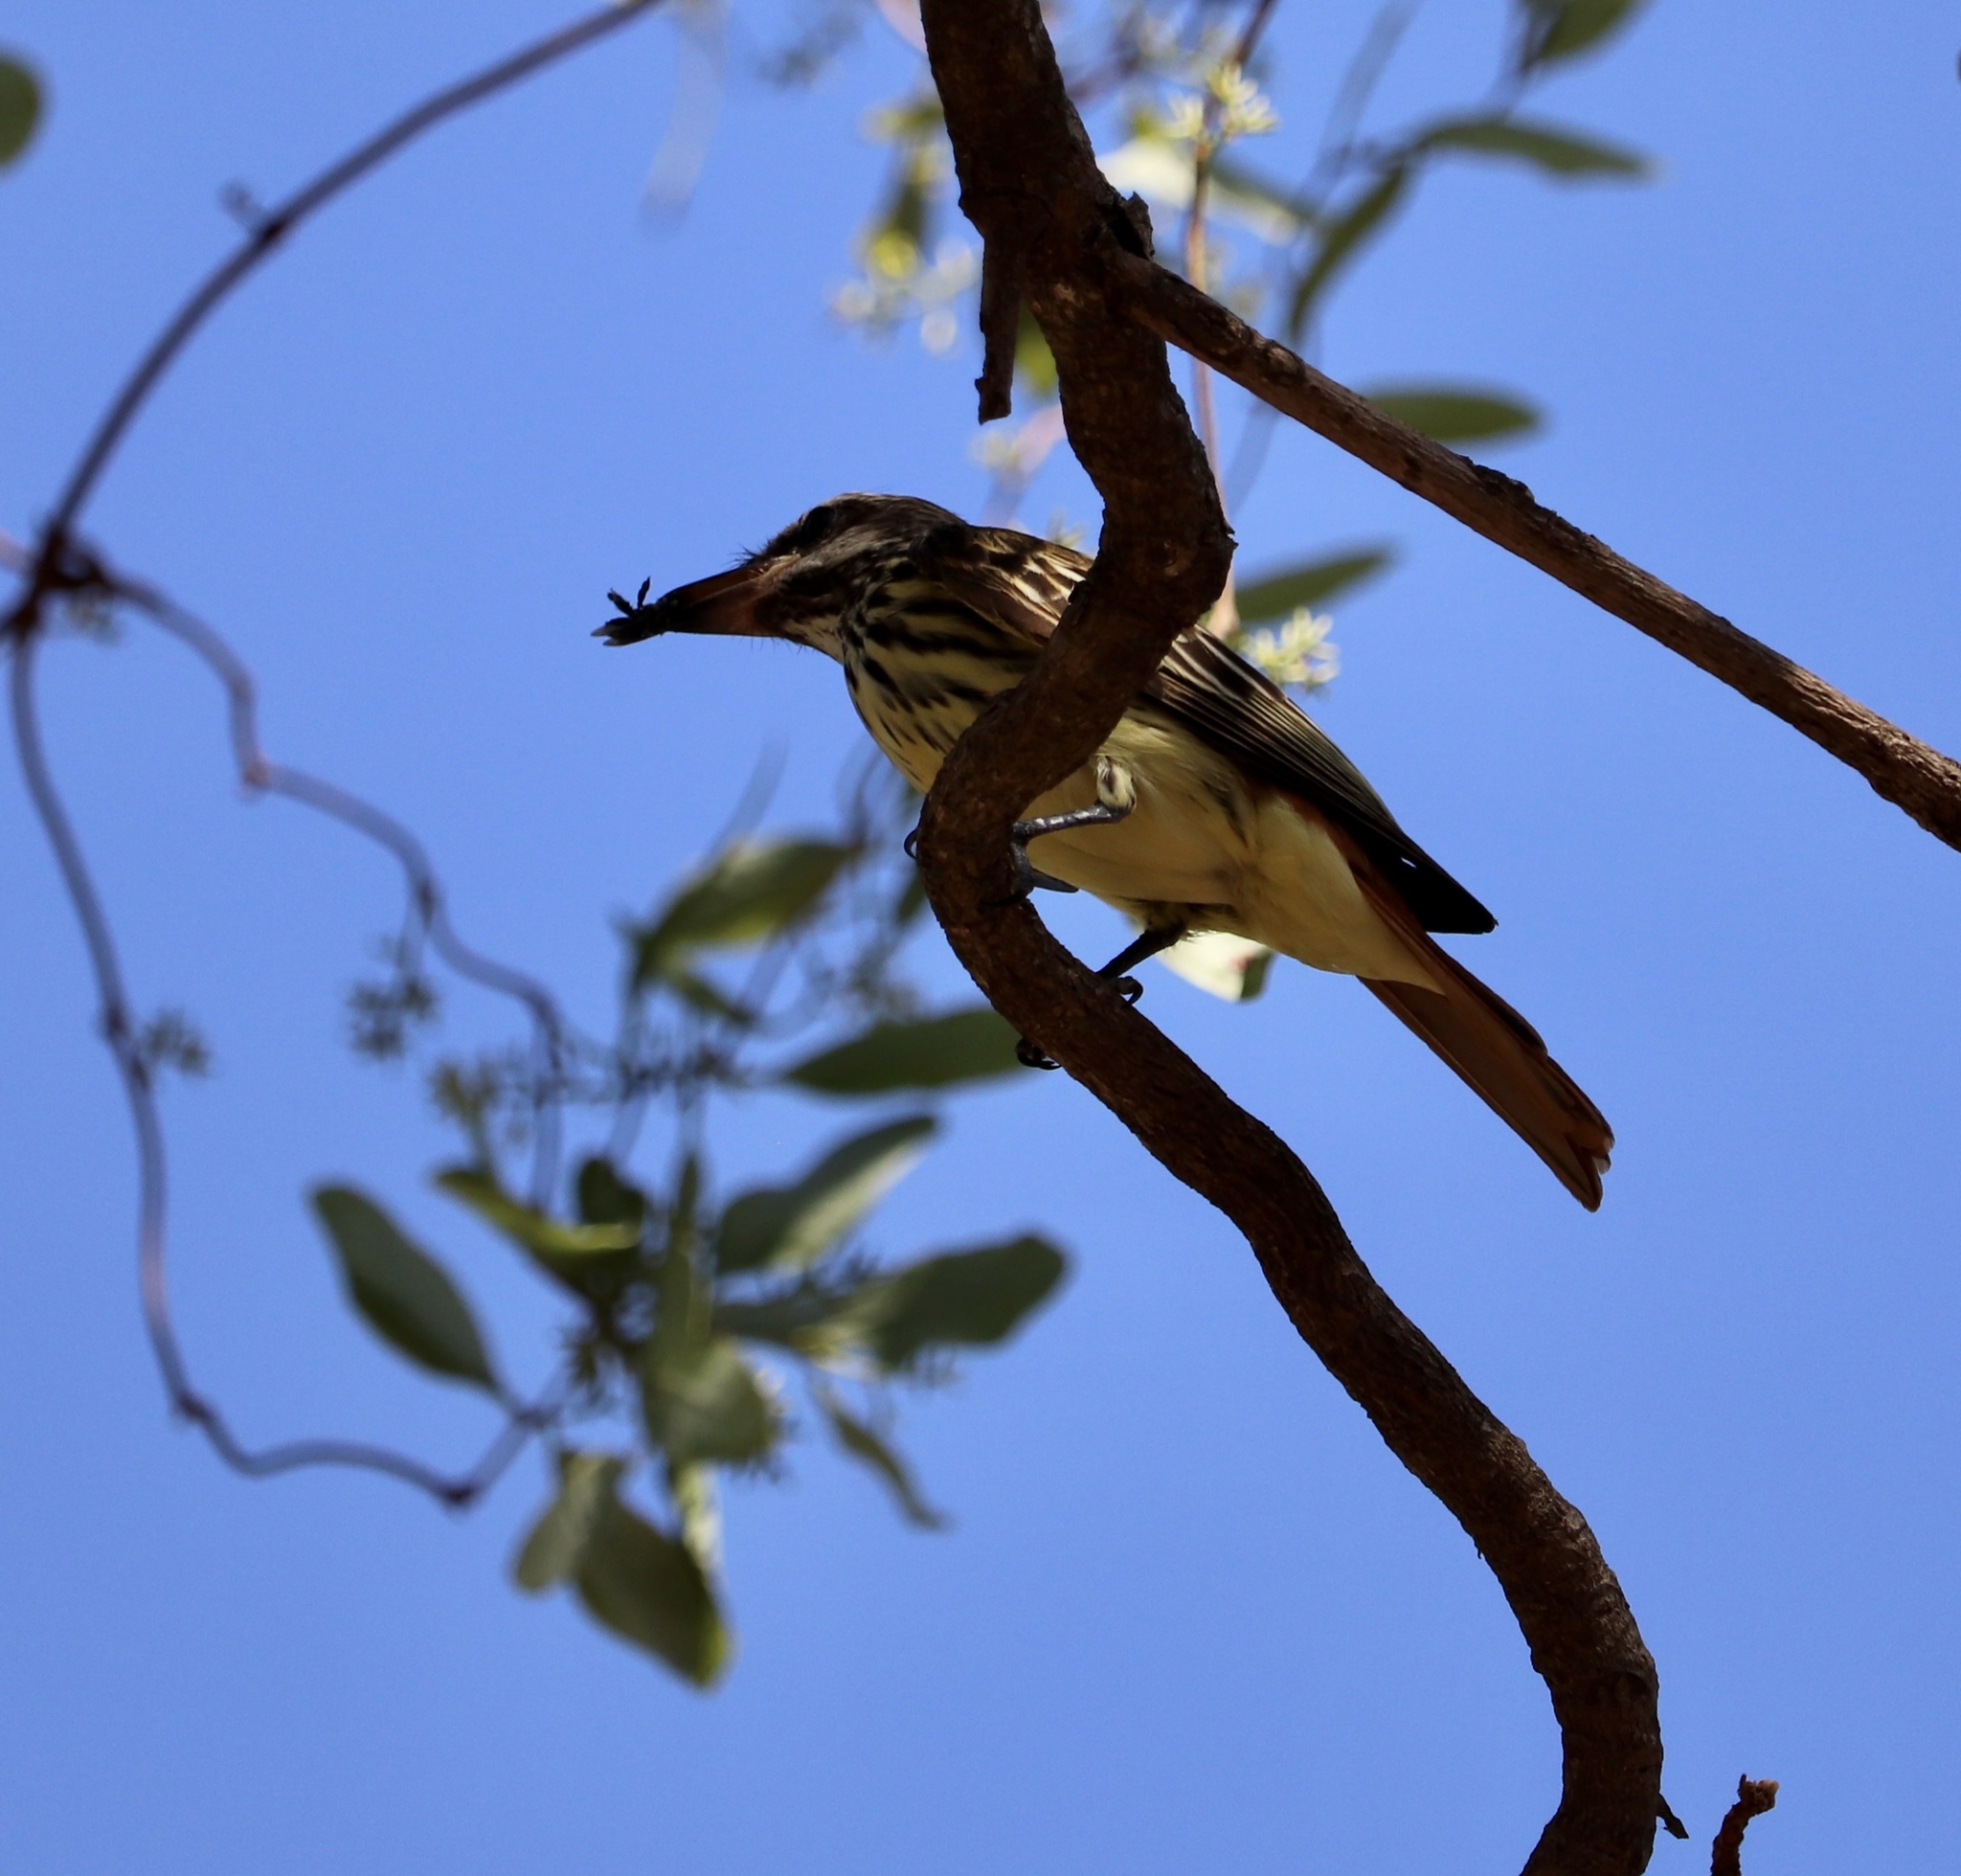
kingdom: Animalia
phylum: Chordata
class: Aves
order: Passeriformes
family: Tyrannidae
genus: Myiodynastes
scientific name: Myiodynastes luteiventris
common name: Sulphur-bellied flycatcher
